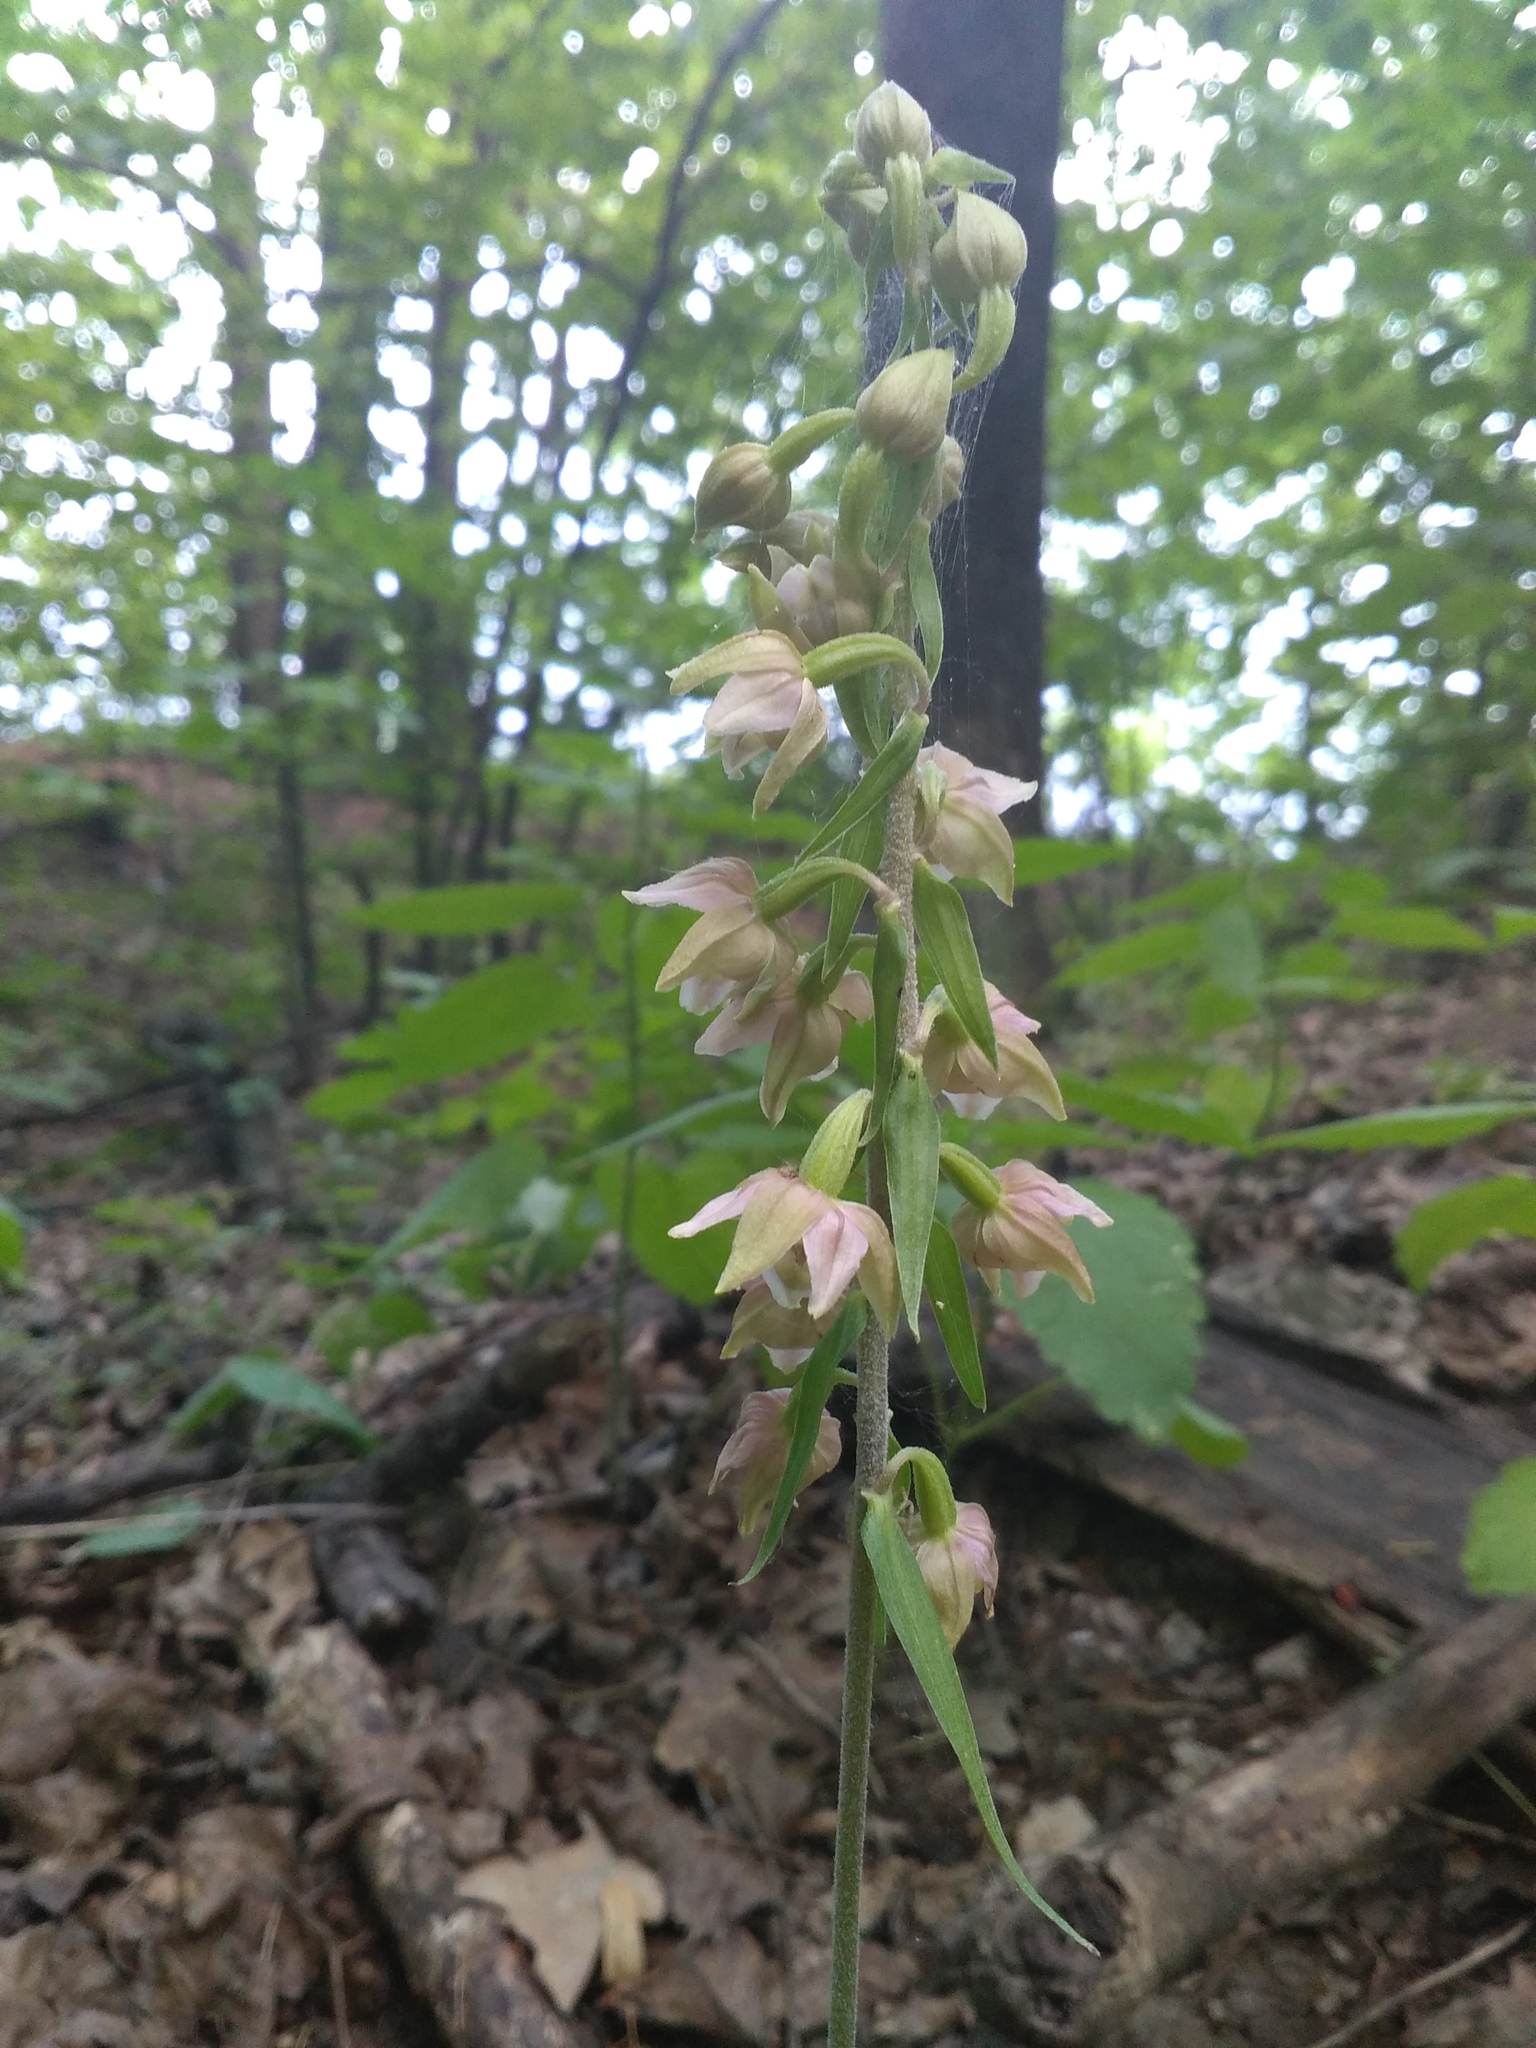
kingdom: Plantae
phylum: Tracheophyta
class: Liliopsida
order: Asparagales
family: Orchidaceae
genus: Epipactis
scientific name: Epipactis helleborine
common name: Broad-leaved helleborine
